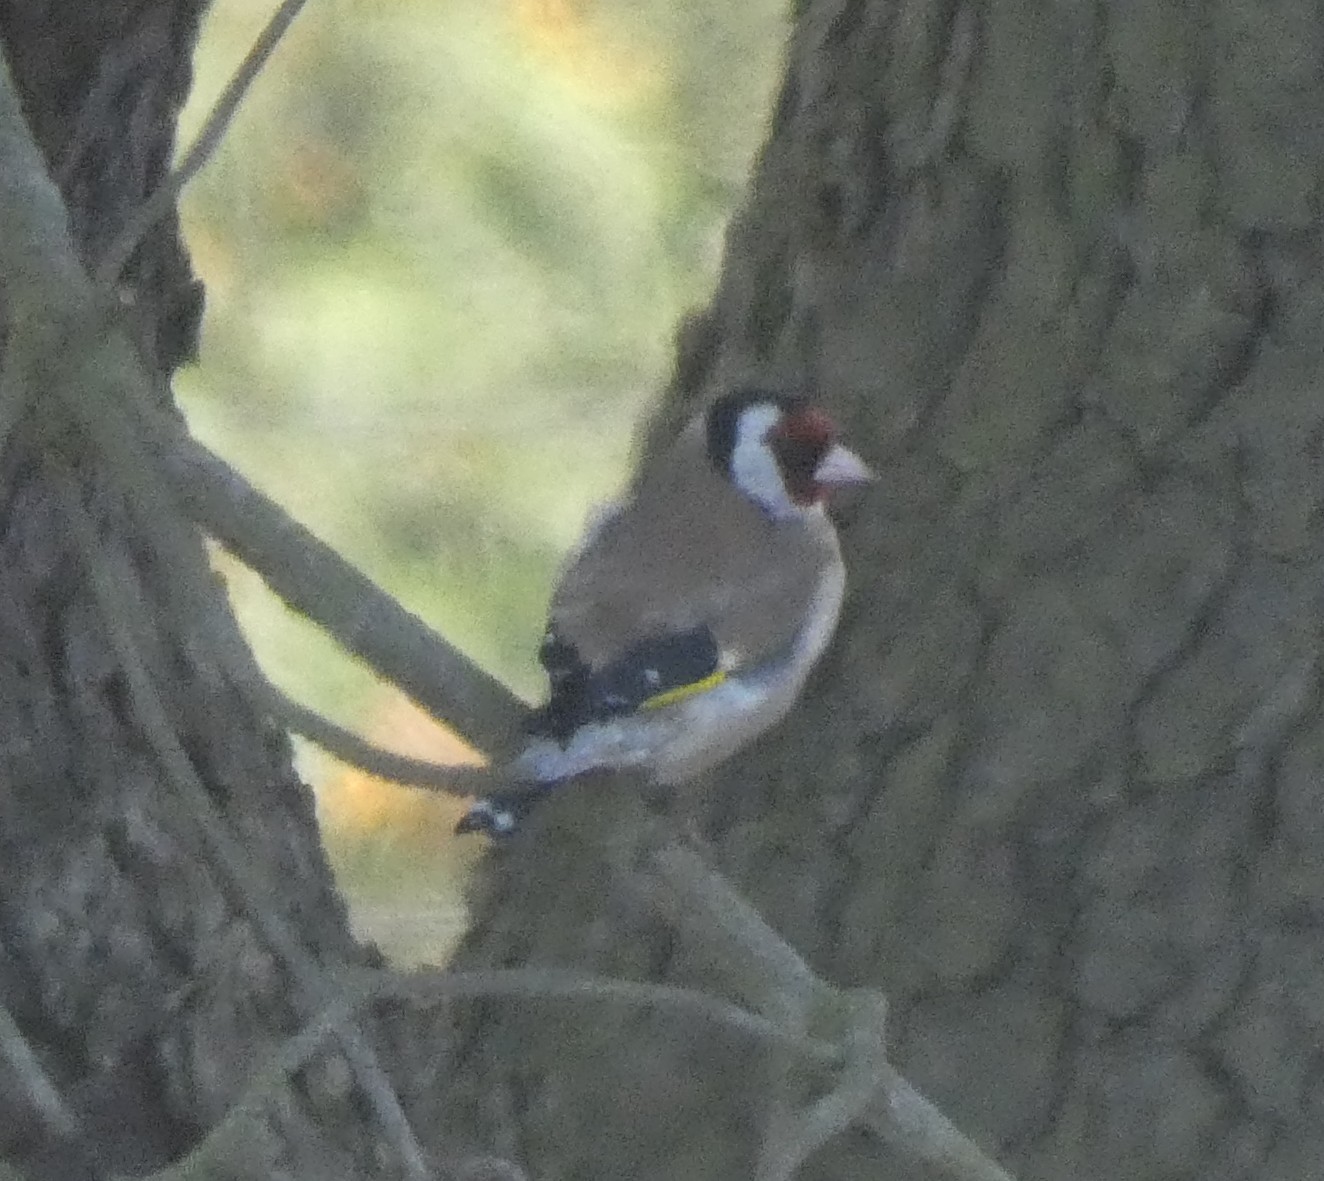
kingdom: Animalia
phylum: Chordata
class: Aves
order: Passeriformes
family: Fringillidae
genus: Carduelis
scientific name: Carduelis carduelis
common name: European goldfinch
